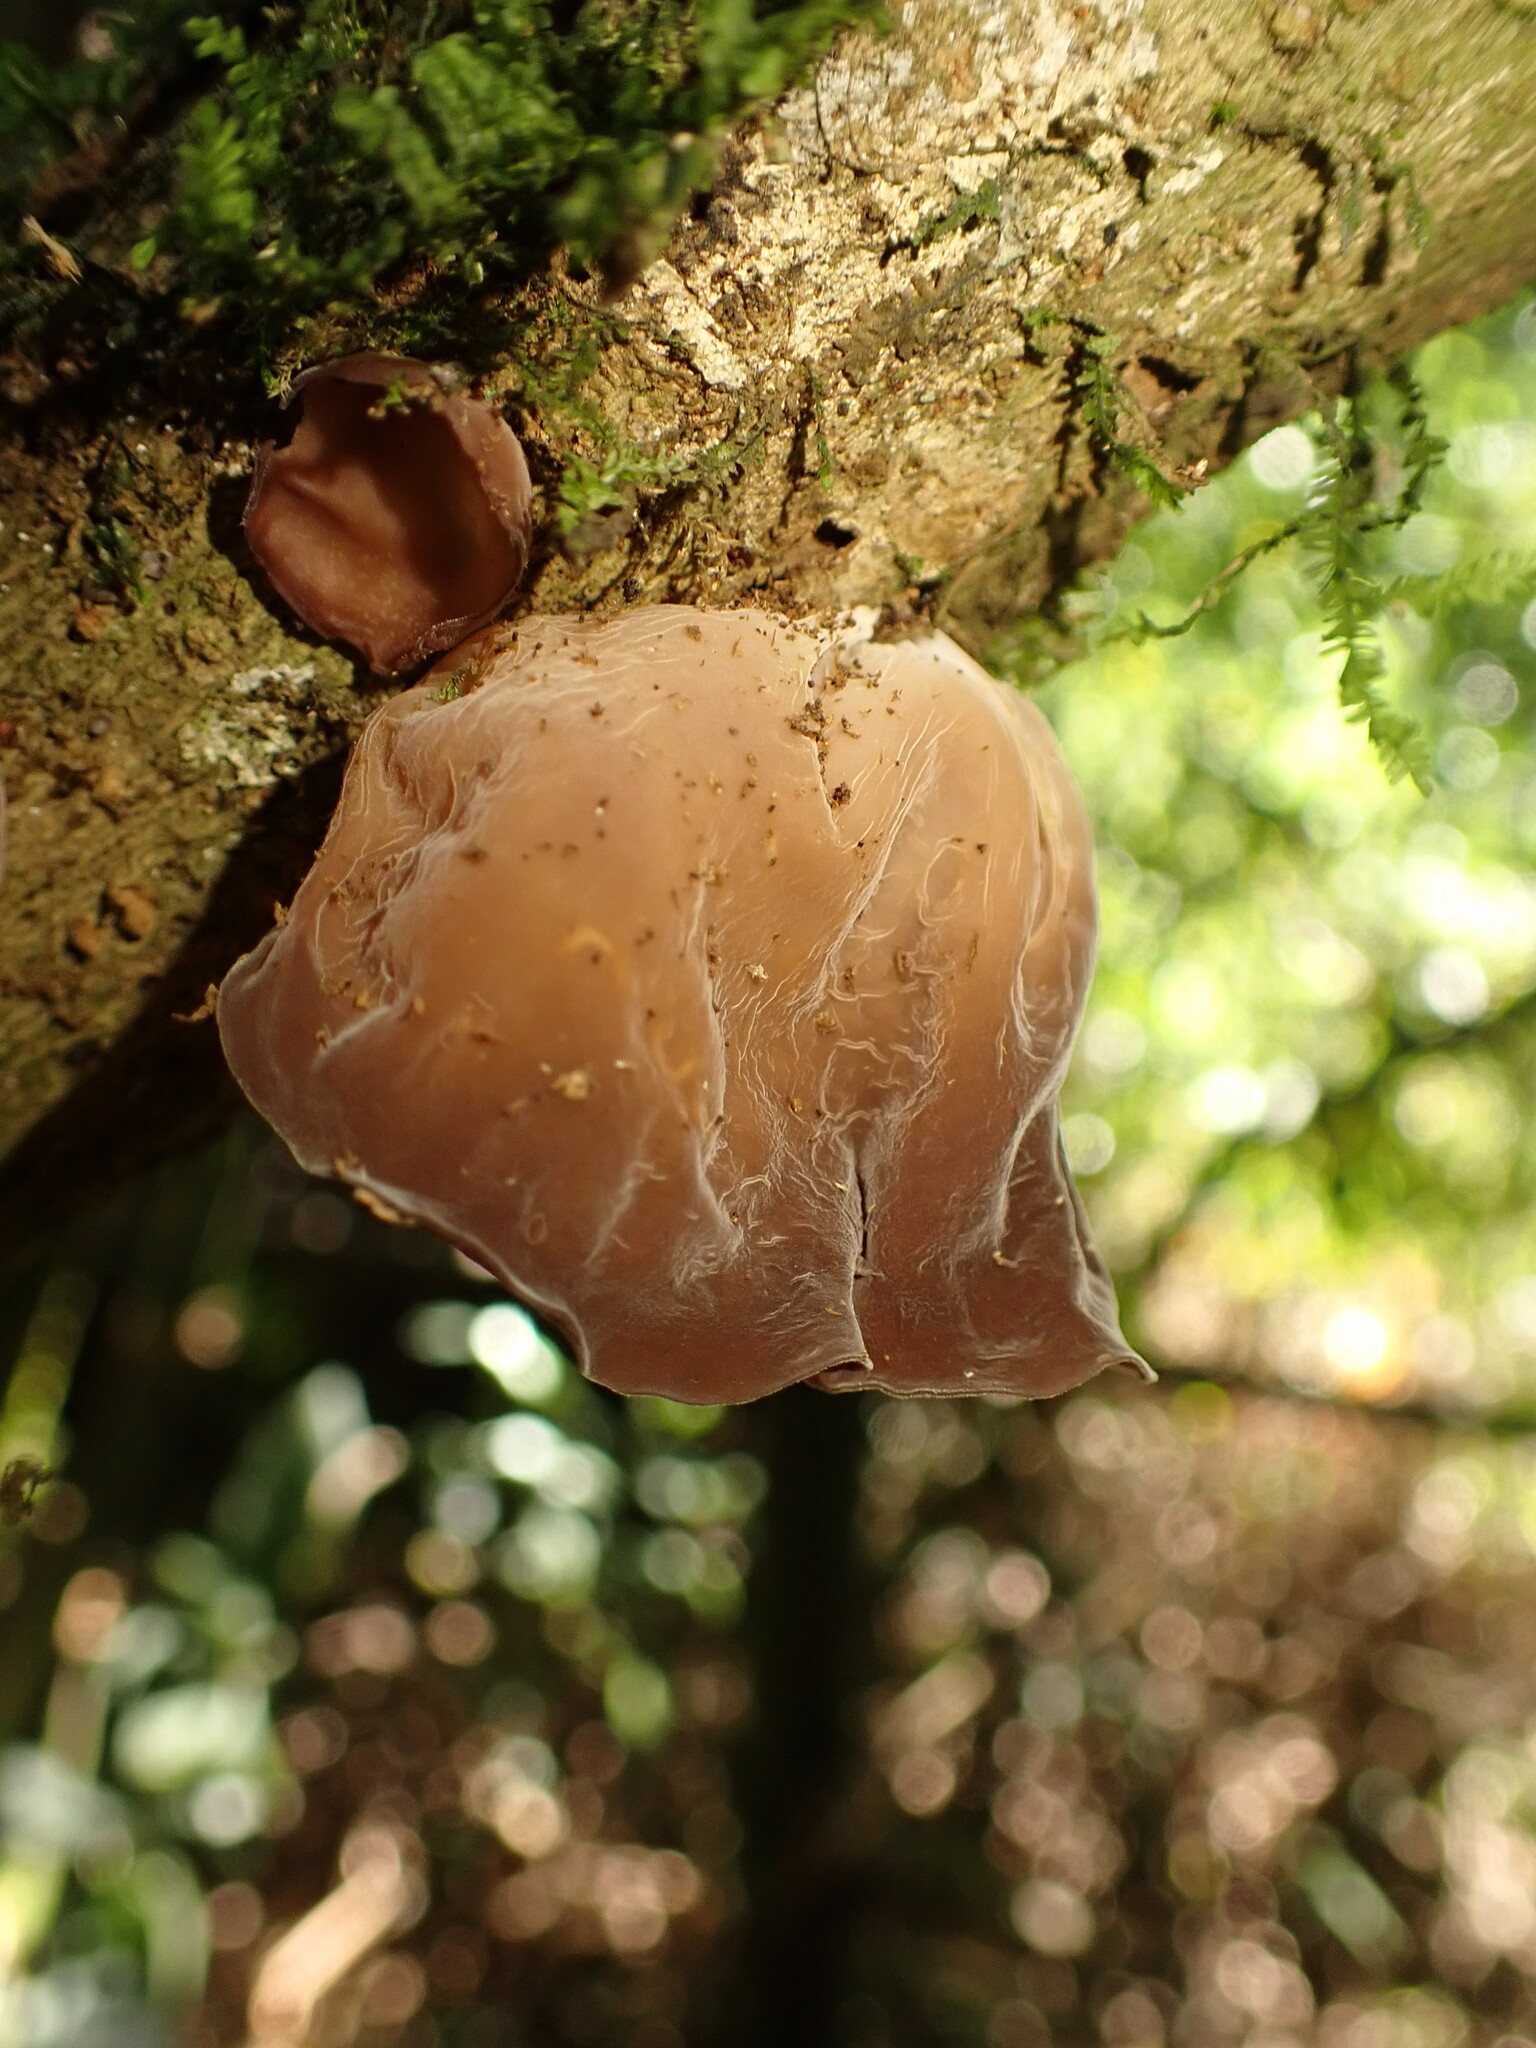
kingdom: Fungi
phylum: Basidiomycota
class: Agaricomycetes
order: Auriculariales
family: Auriculariaceae
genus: Auricularia
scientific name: Auricularia fuscosuccinea
